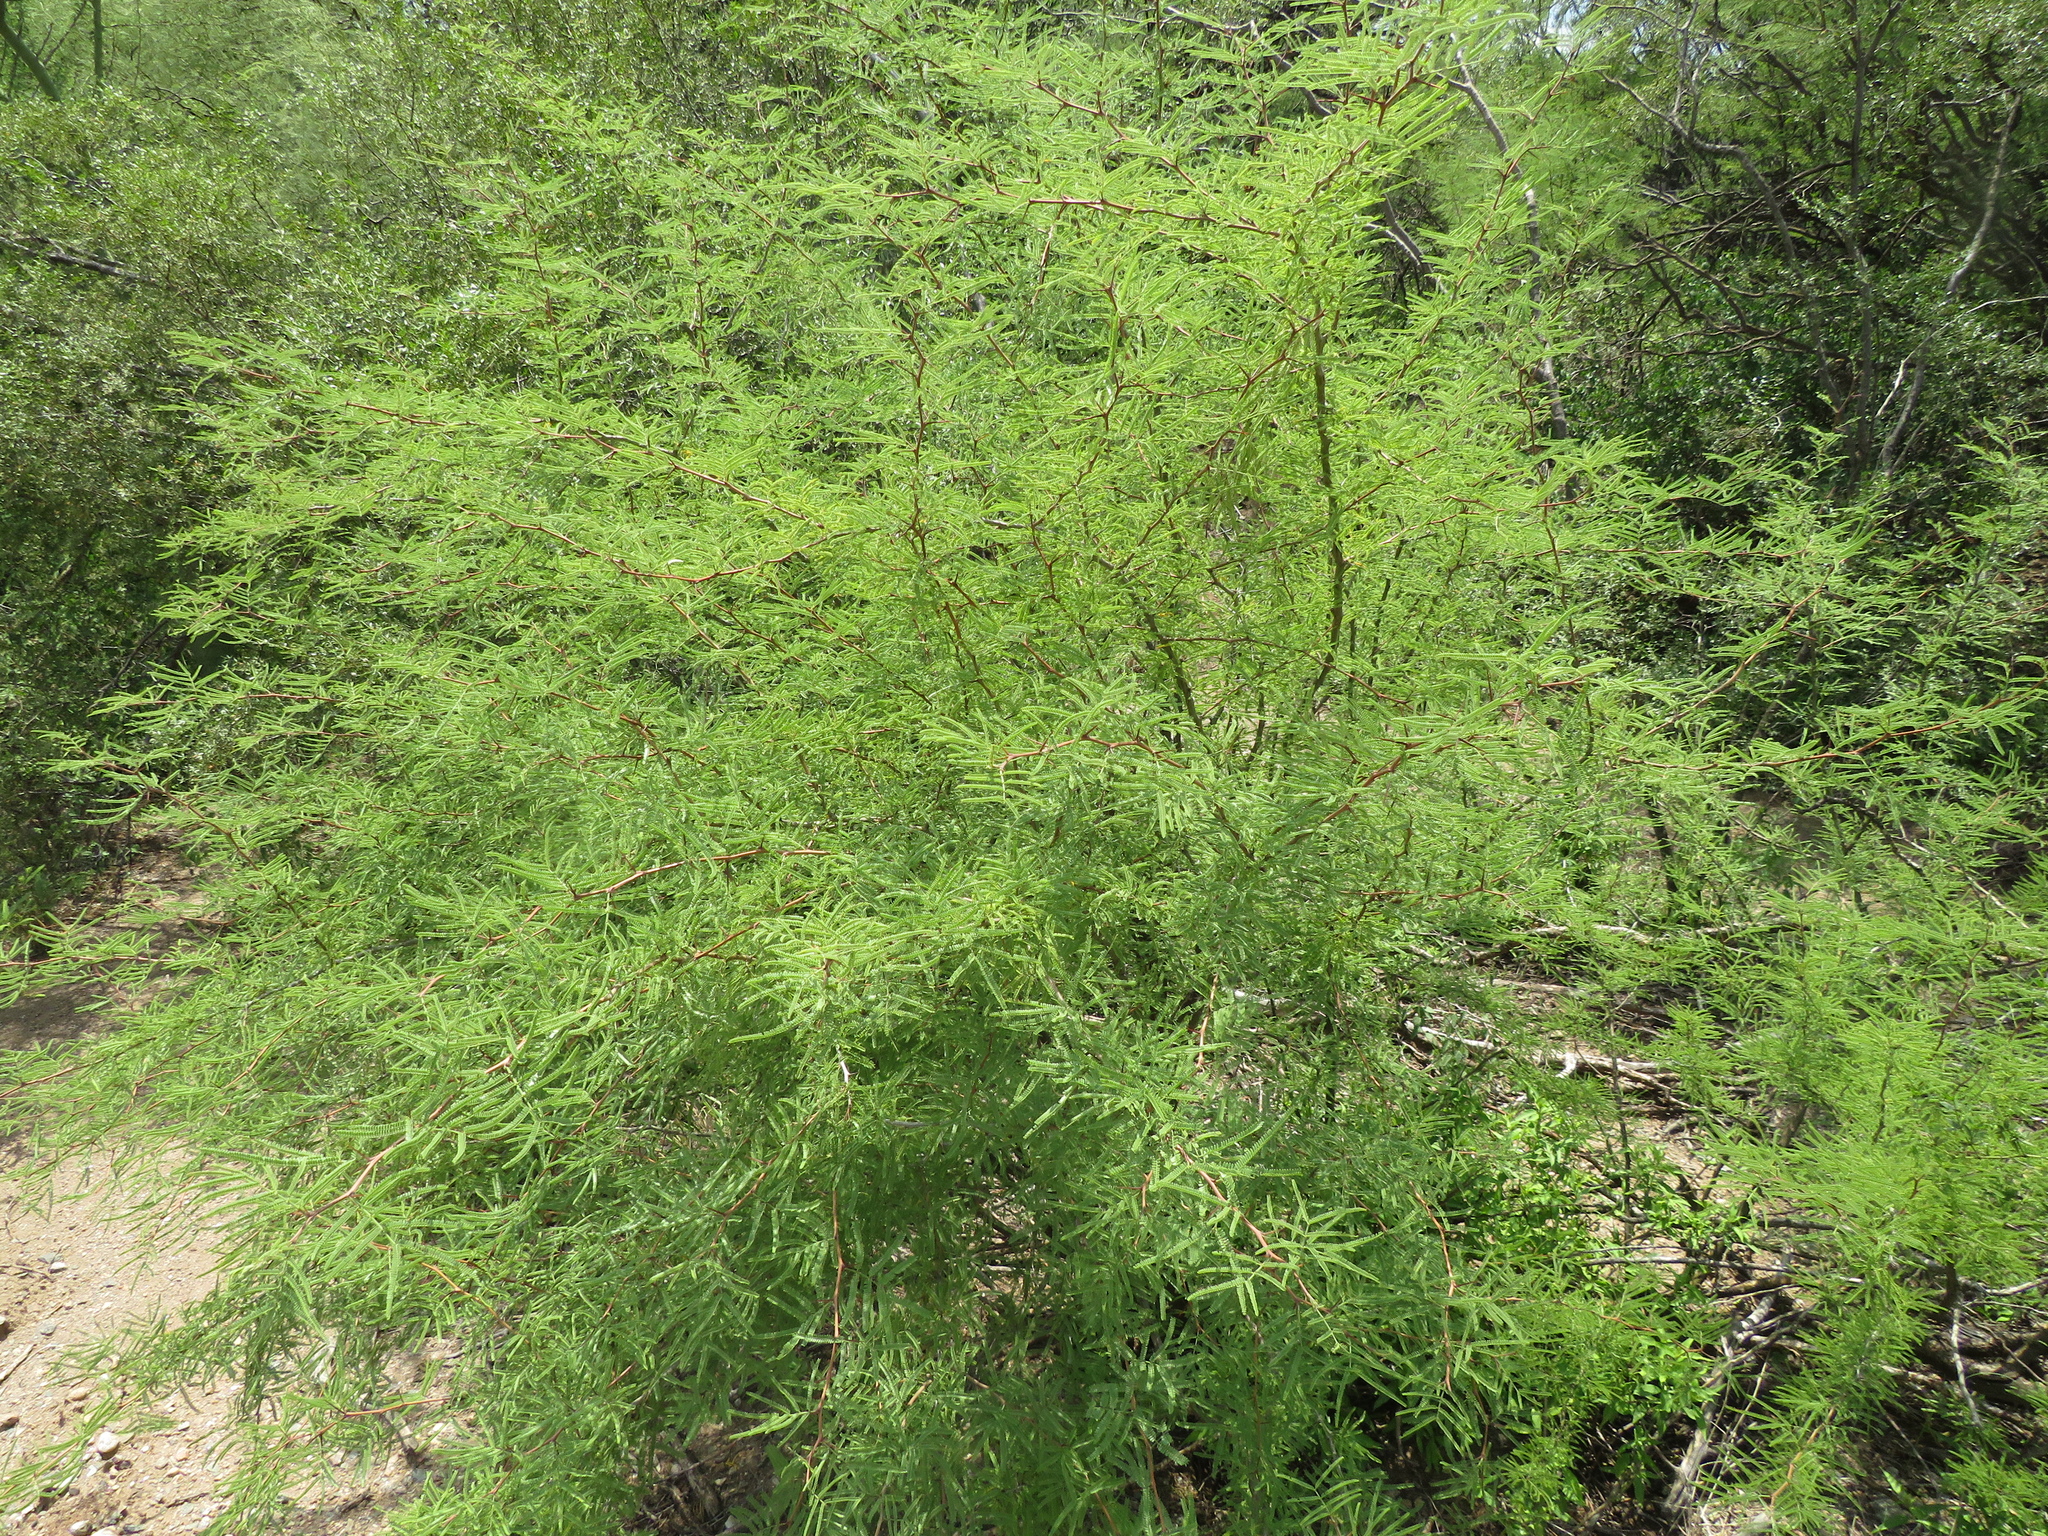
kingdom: Plantae
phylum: Tracheophyta
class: Magnoliopsida
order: Fabales
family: Fabaceae
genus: Mimozyganthus
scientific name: Mimozyganthus carinatus
